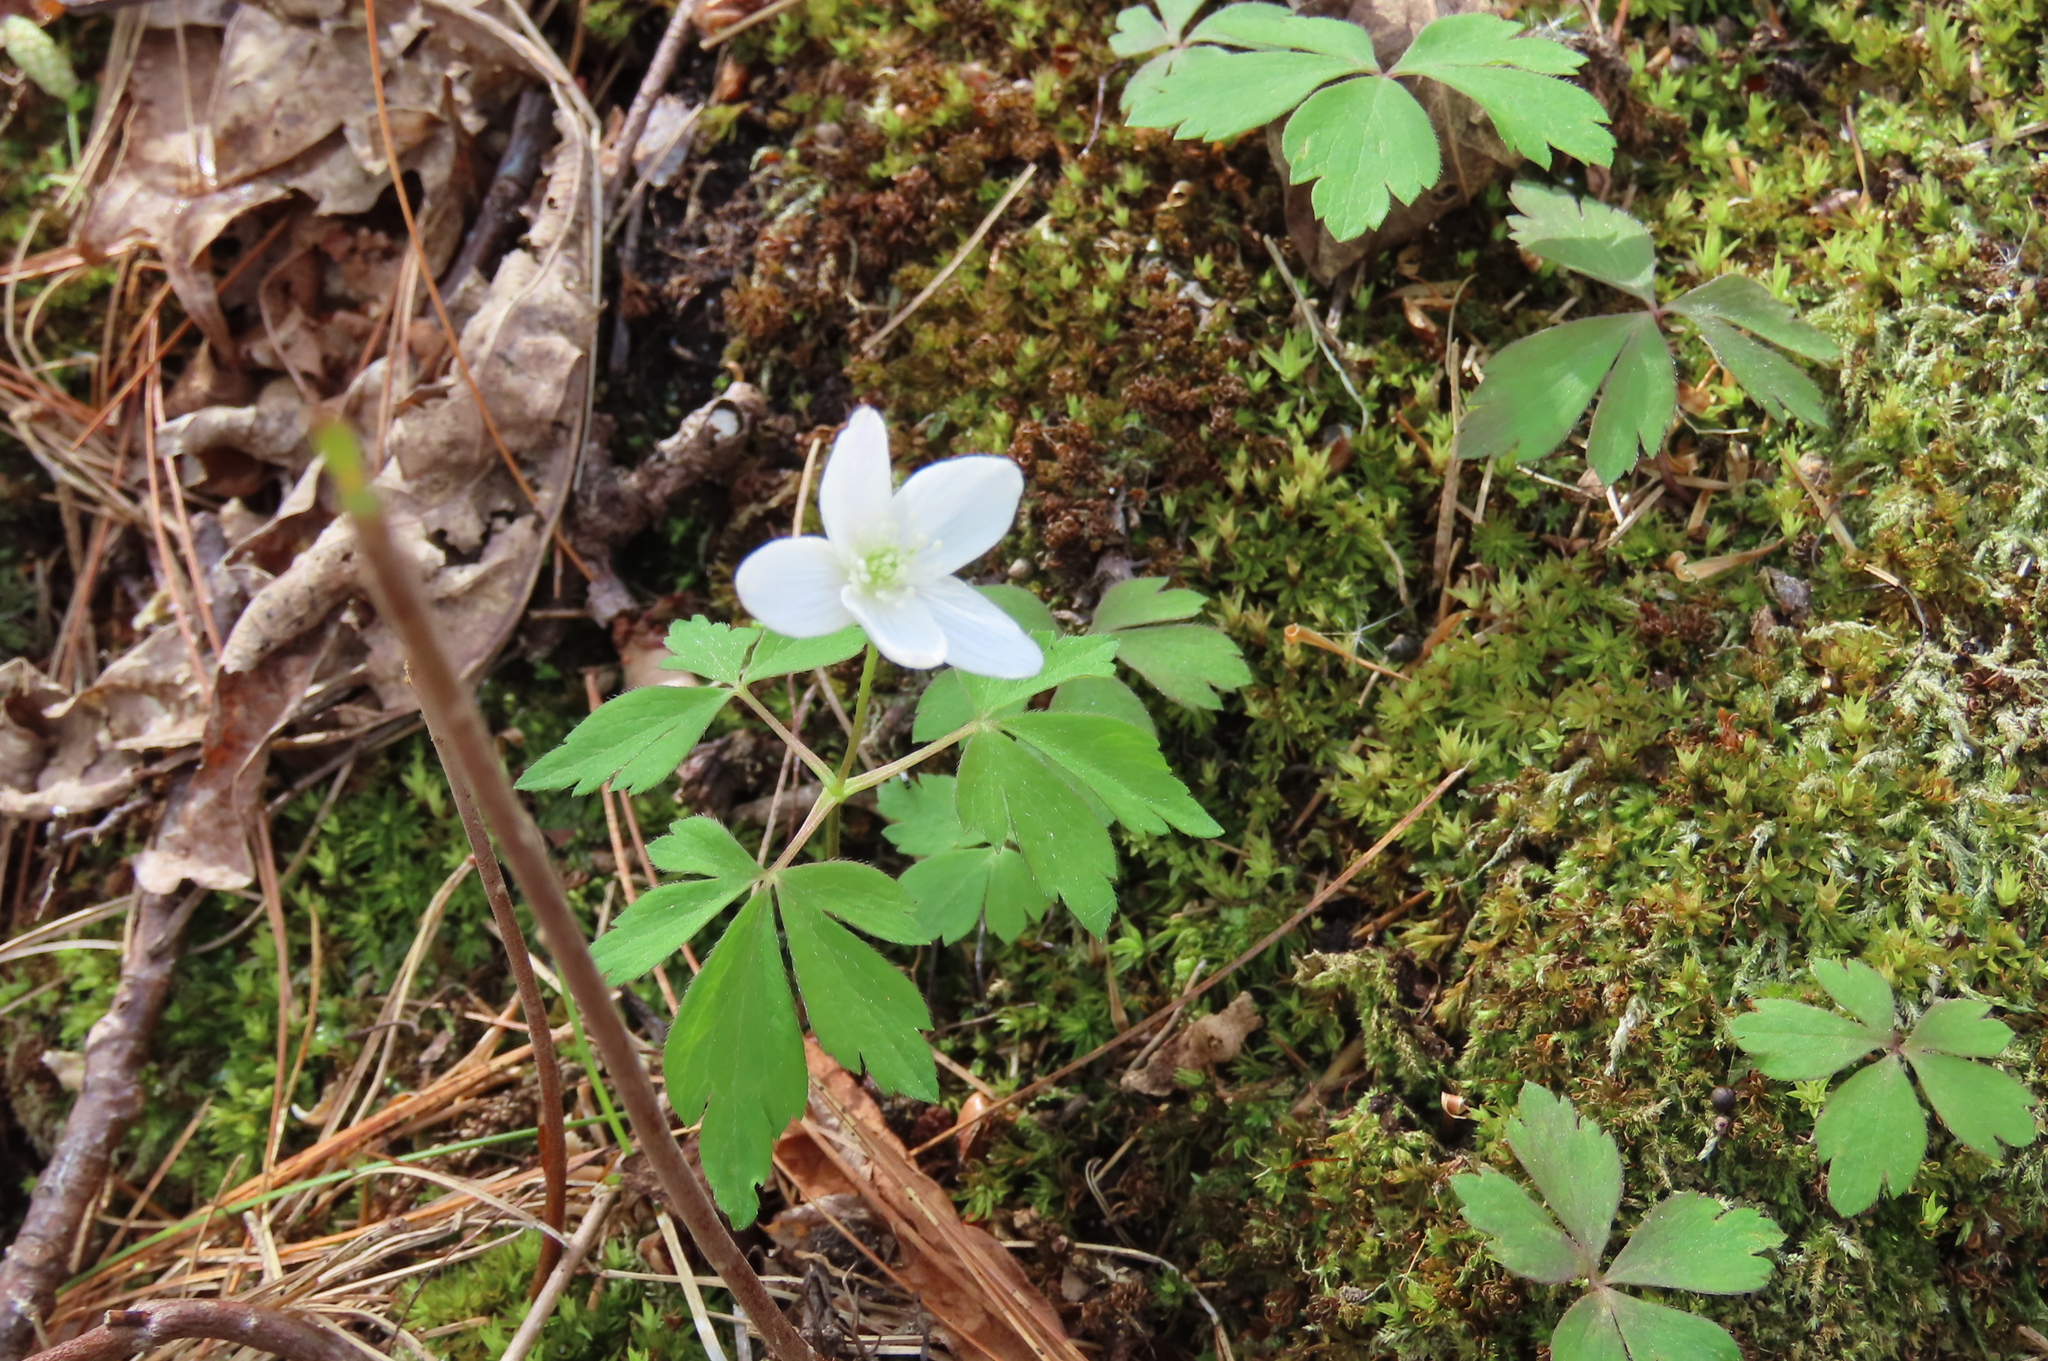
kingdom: Plantae
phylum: Tracheophyta
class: Magnoliopsida
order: Ranunculales
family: Ranunculaceae
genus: Anemone
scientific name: Anemone quinquefolia
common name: Wood anemone
